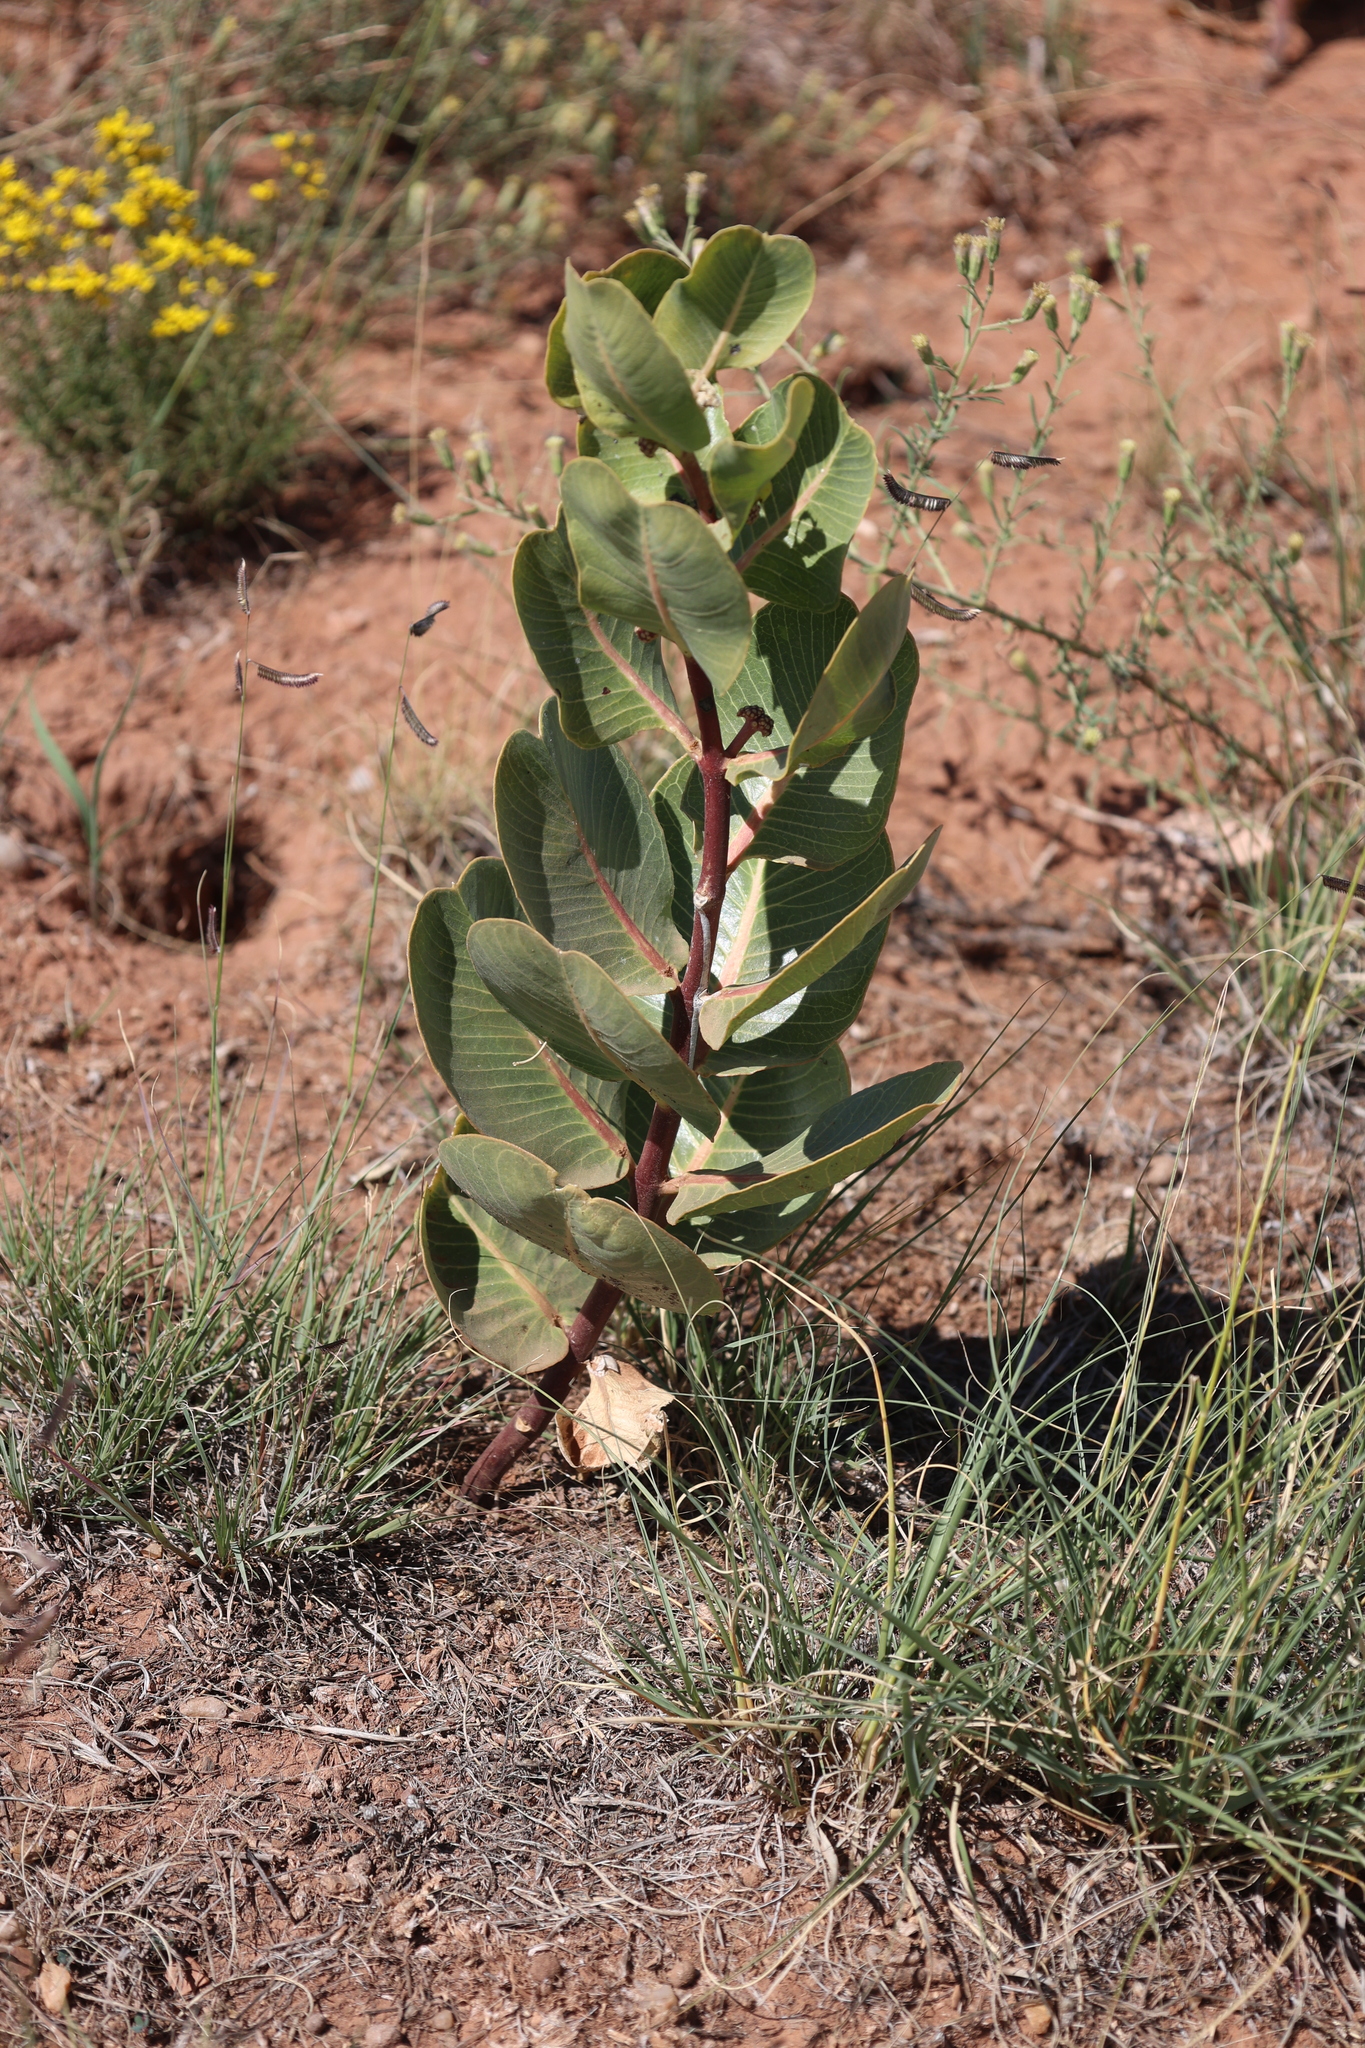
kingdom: Plantae
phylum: Tracheophyta
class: Magnoliopsida
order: Gentianales
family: Apocynaceae
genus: Asclepias
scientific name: Asclepias latifolia
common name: Broadleaf milkweed
